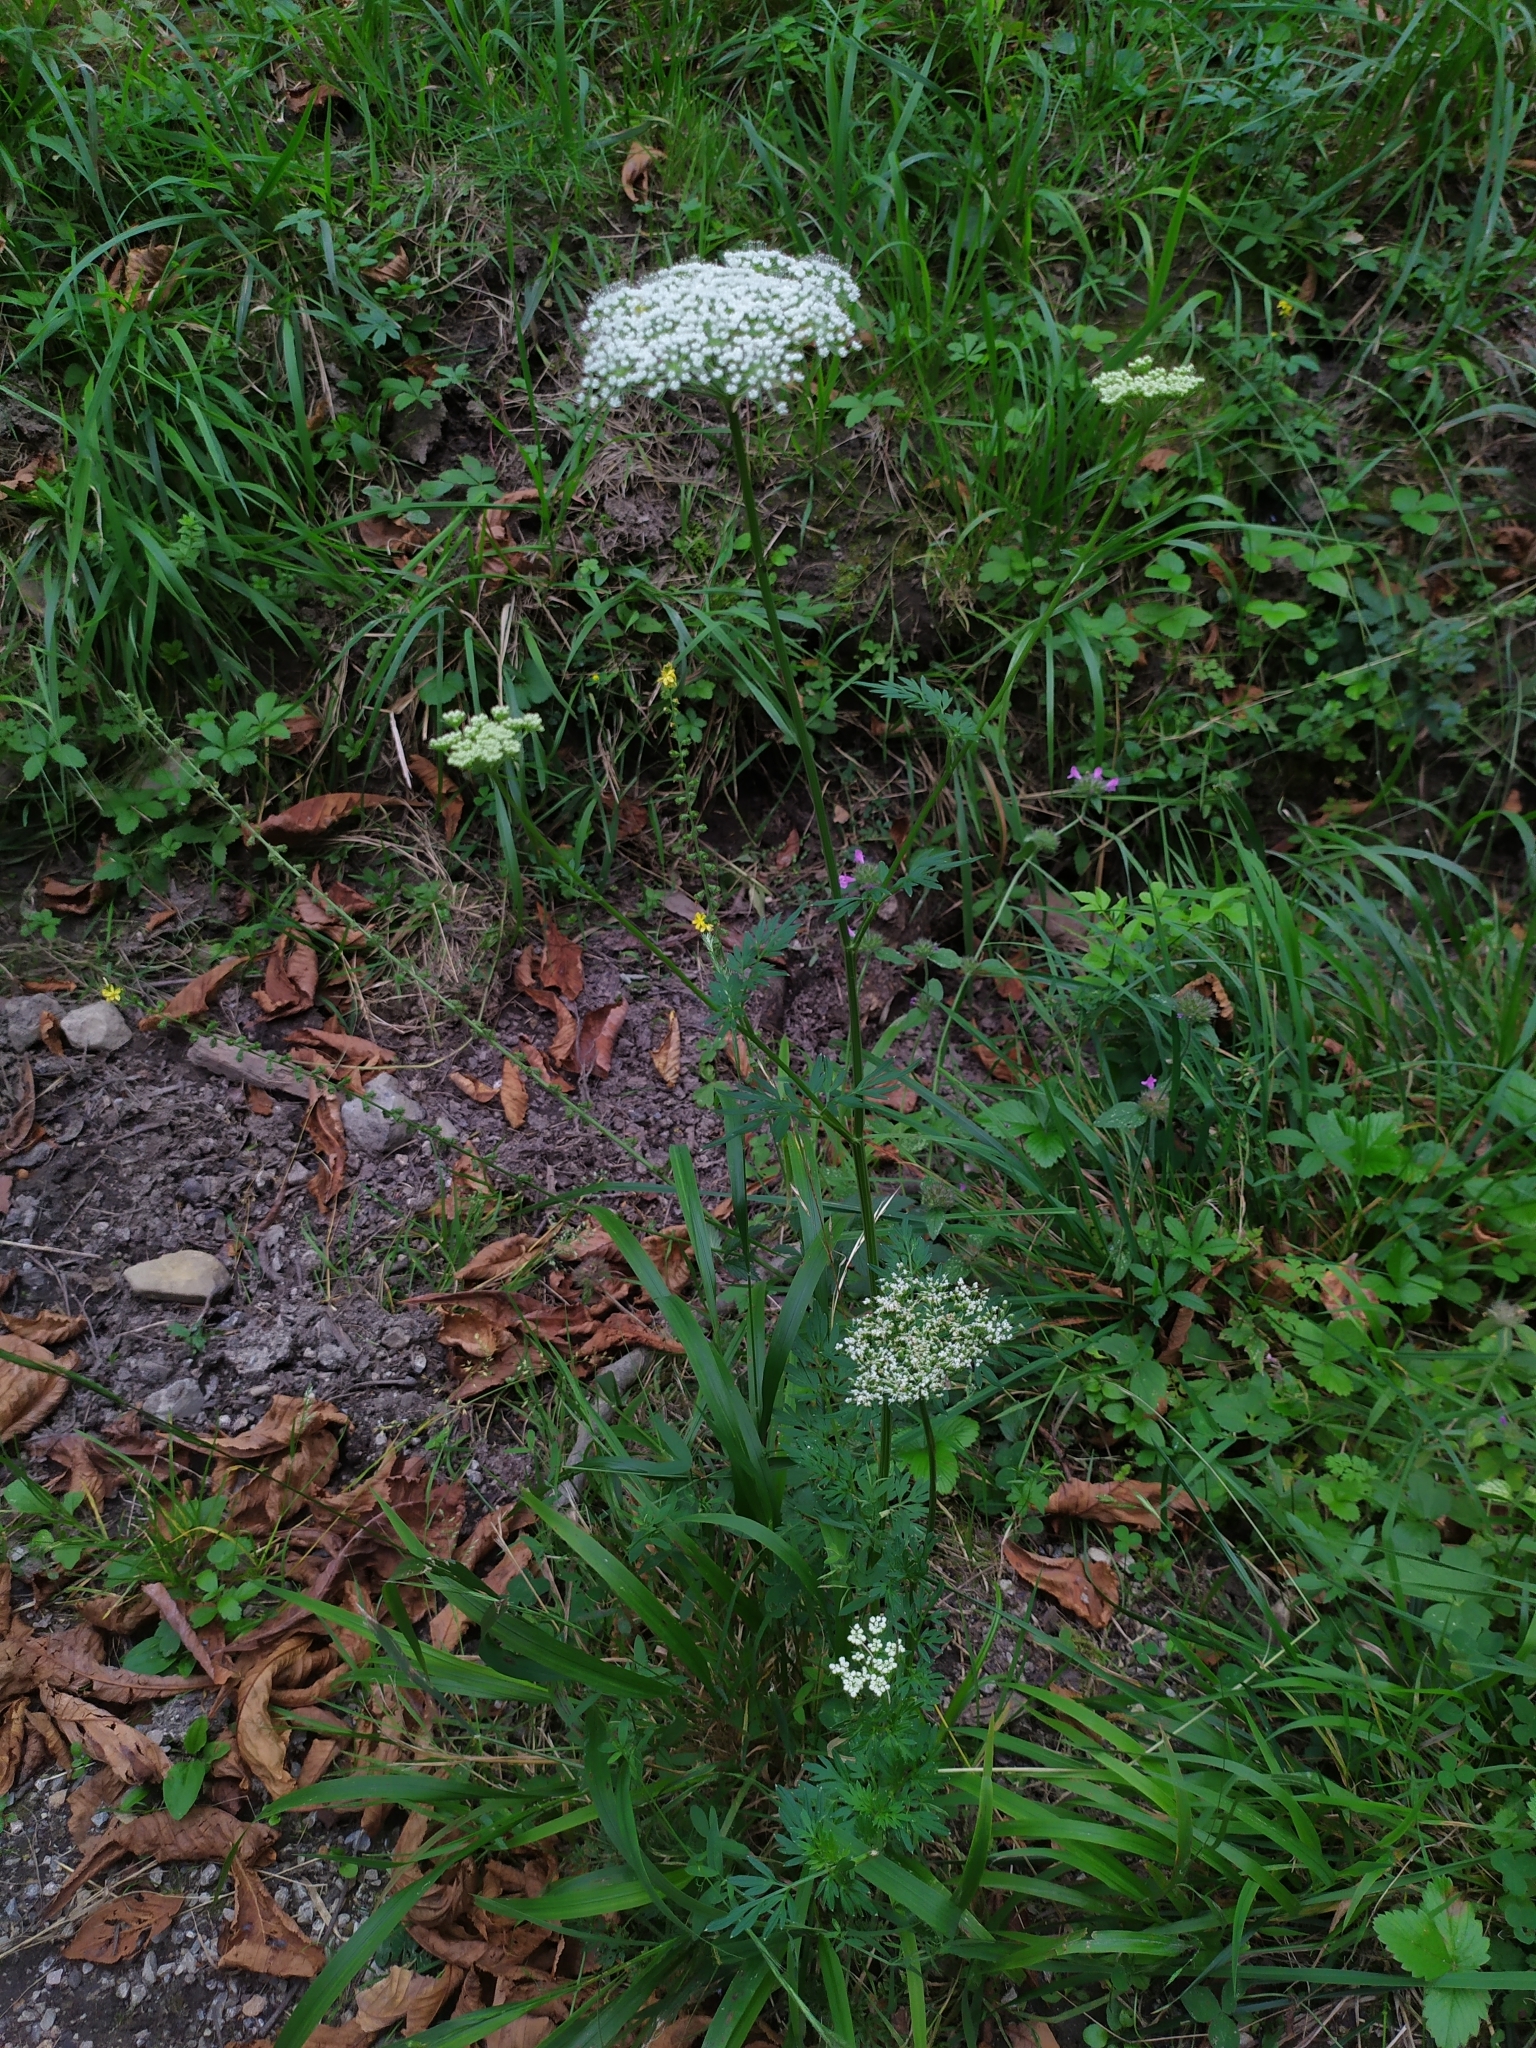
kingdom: Plantae
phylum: Tracheophyta
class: Magnoliopsida
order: Apiales
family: Apiaceae
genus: Selinum
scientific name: Selinum carvifolia
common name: Cambridge milk-parsley
